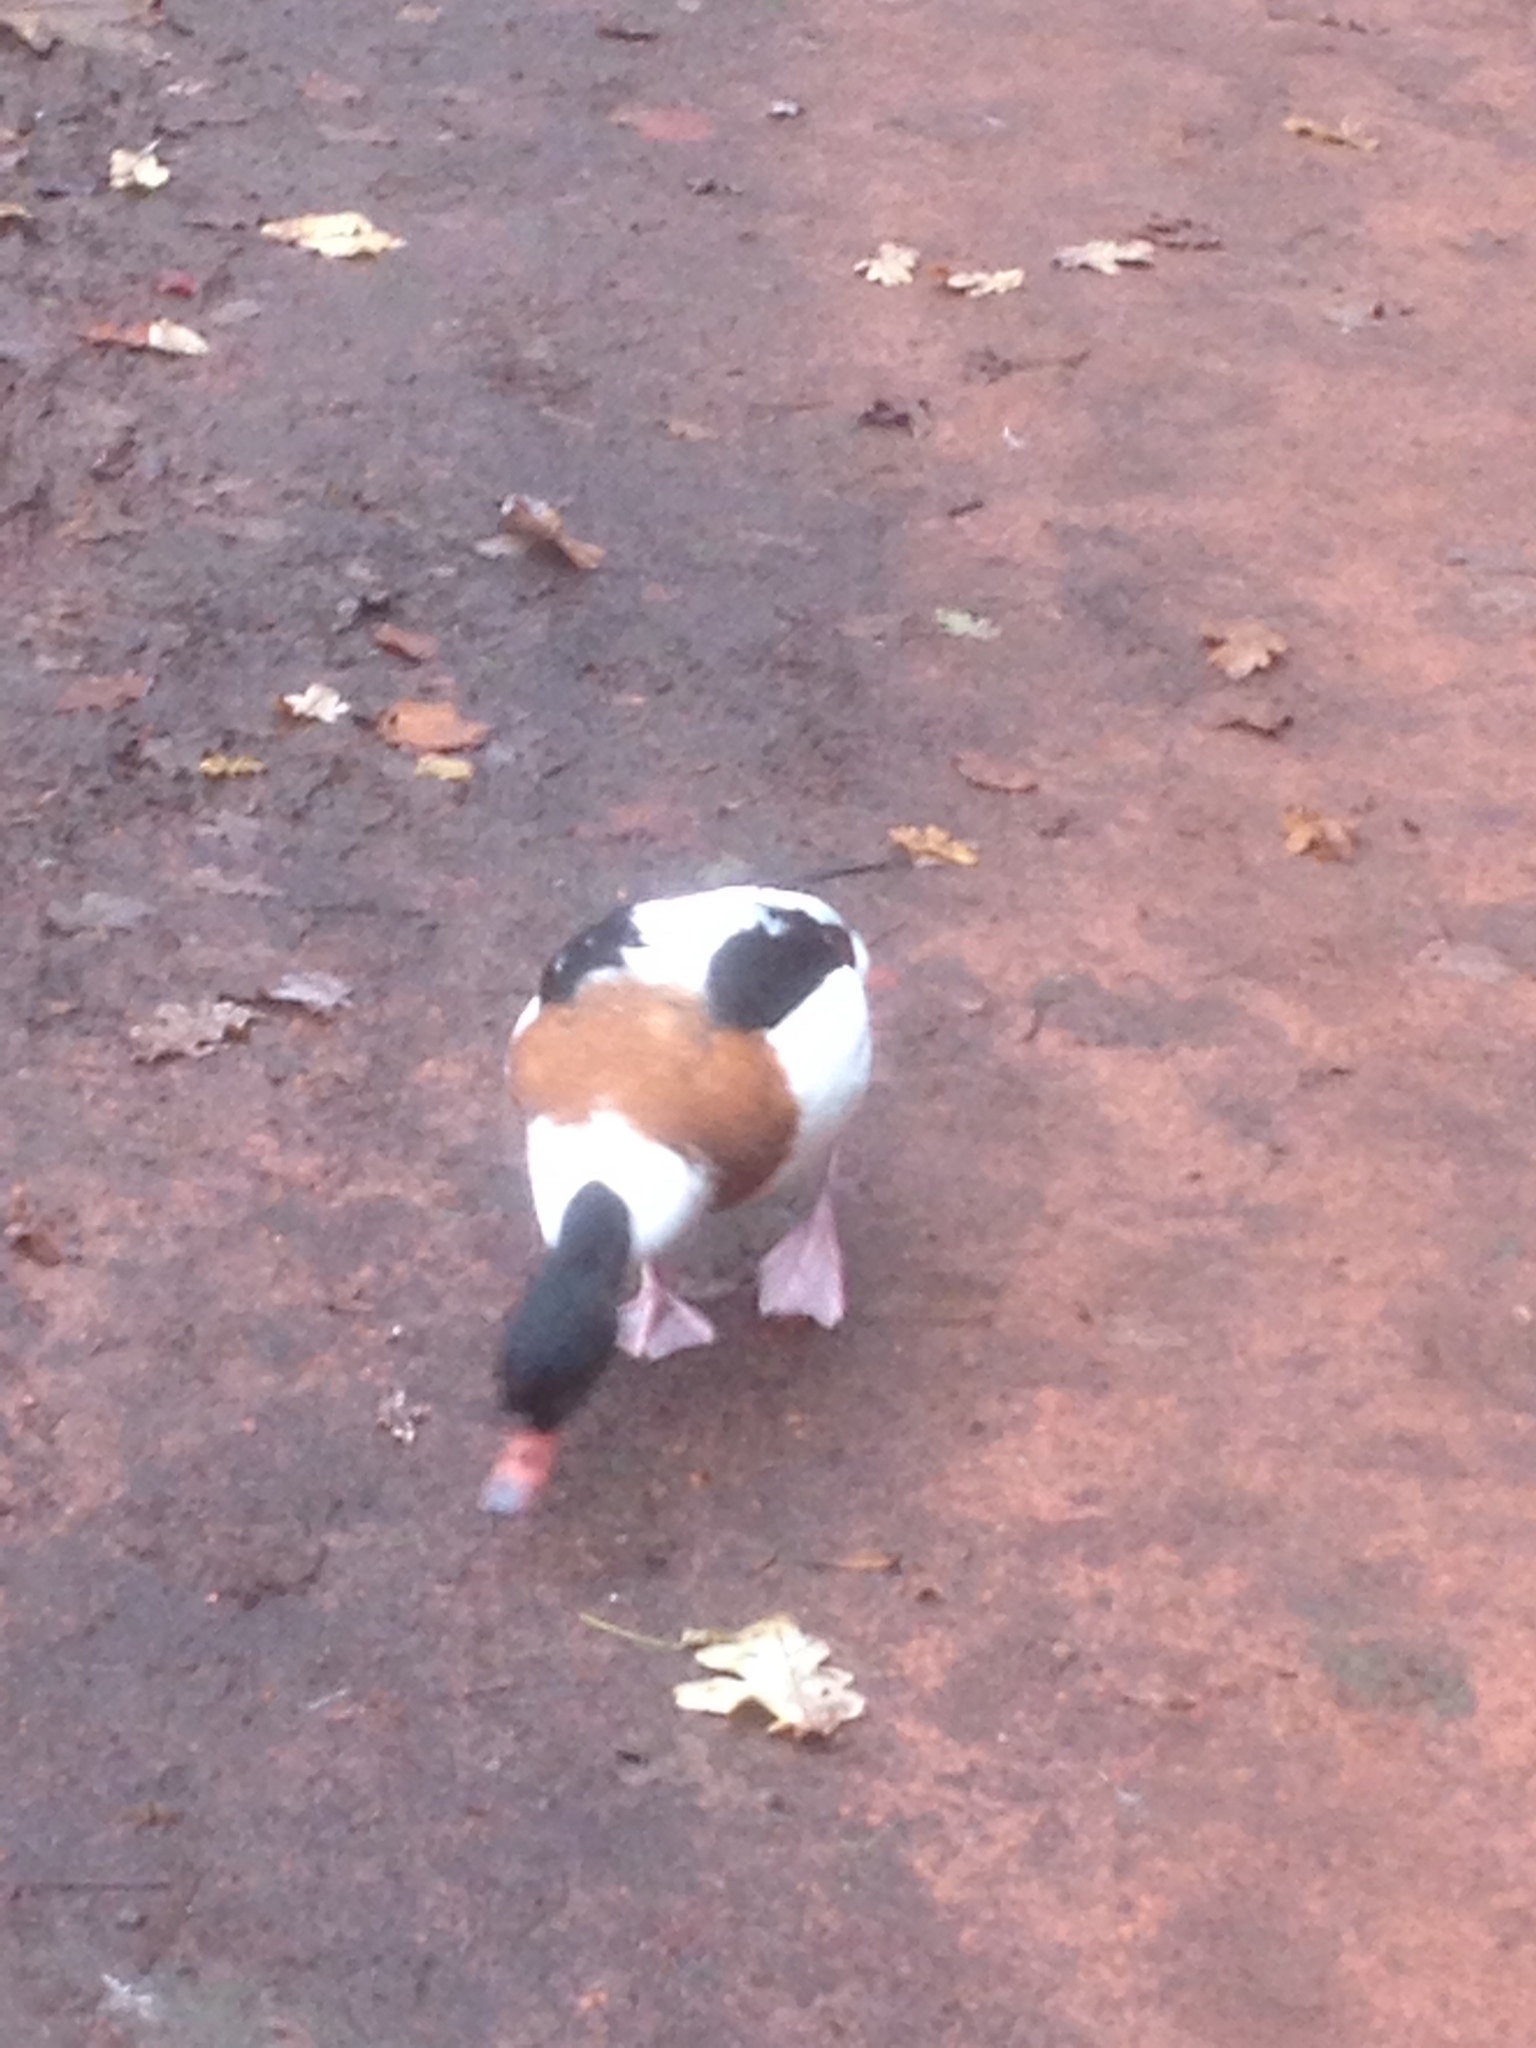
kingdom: Animalia
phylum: Chordata
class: Aves
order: Anseriformes
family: Anatidae
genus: Tadorna
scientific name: Tadorna tadorna
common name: Common shelduck
